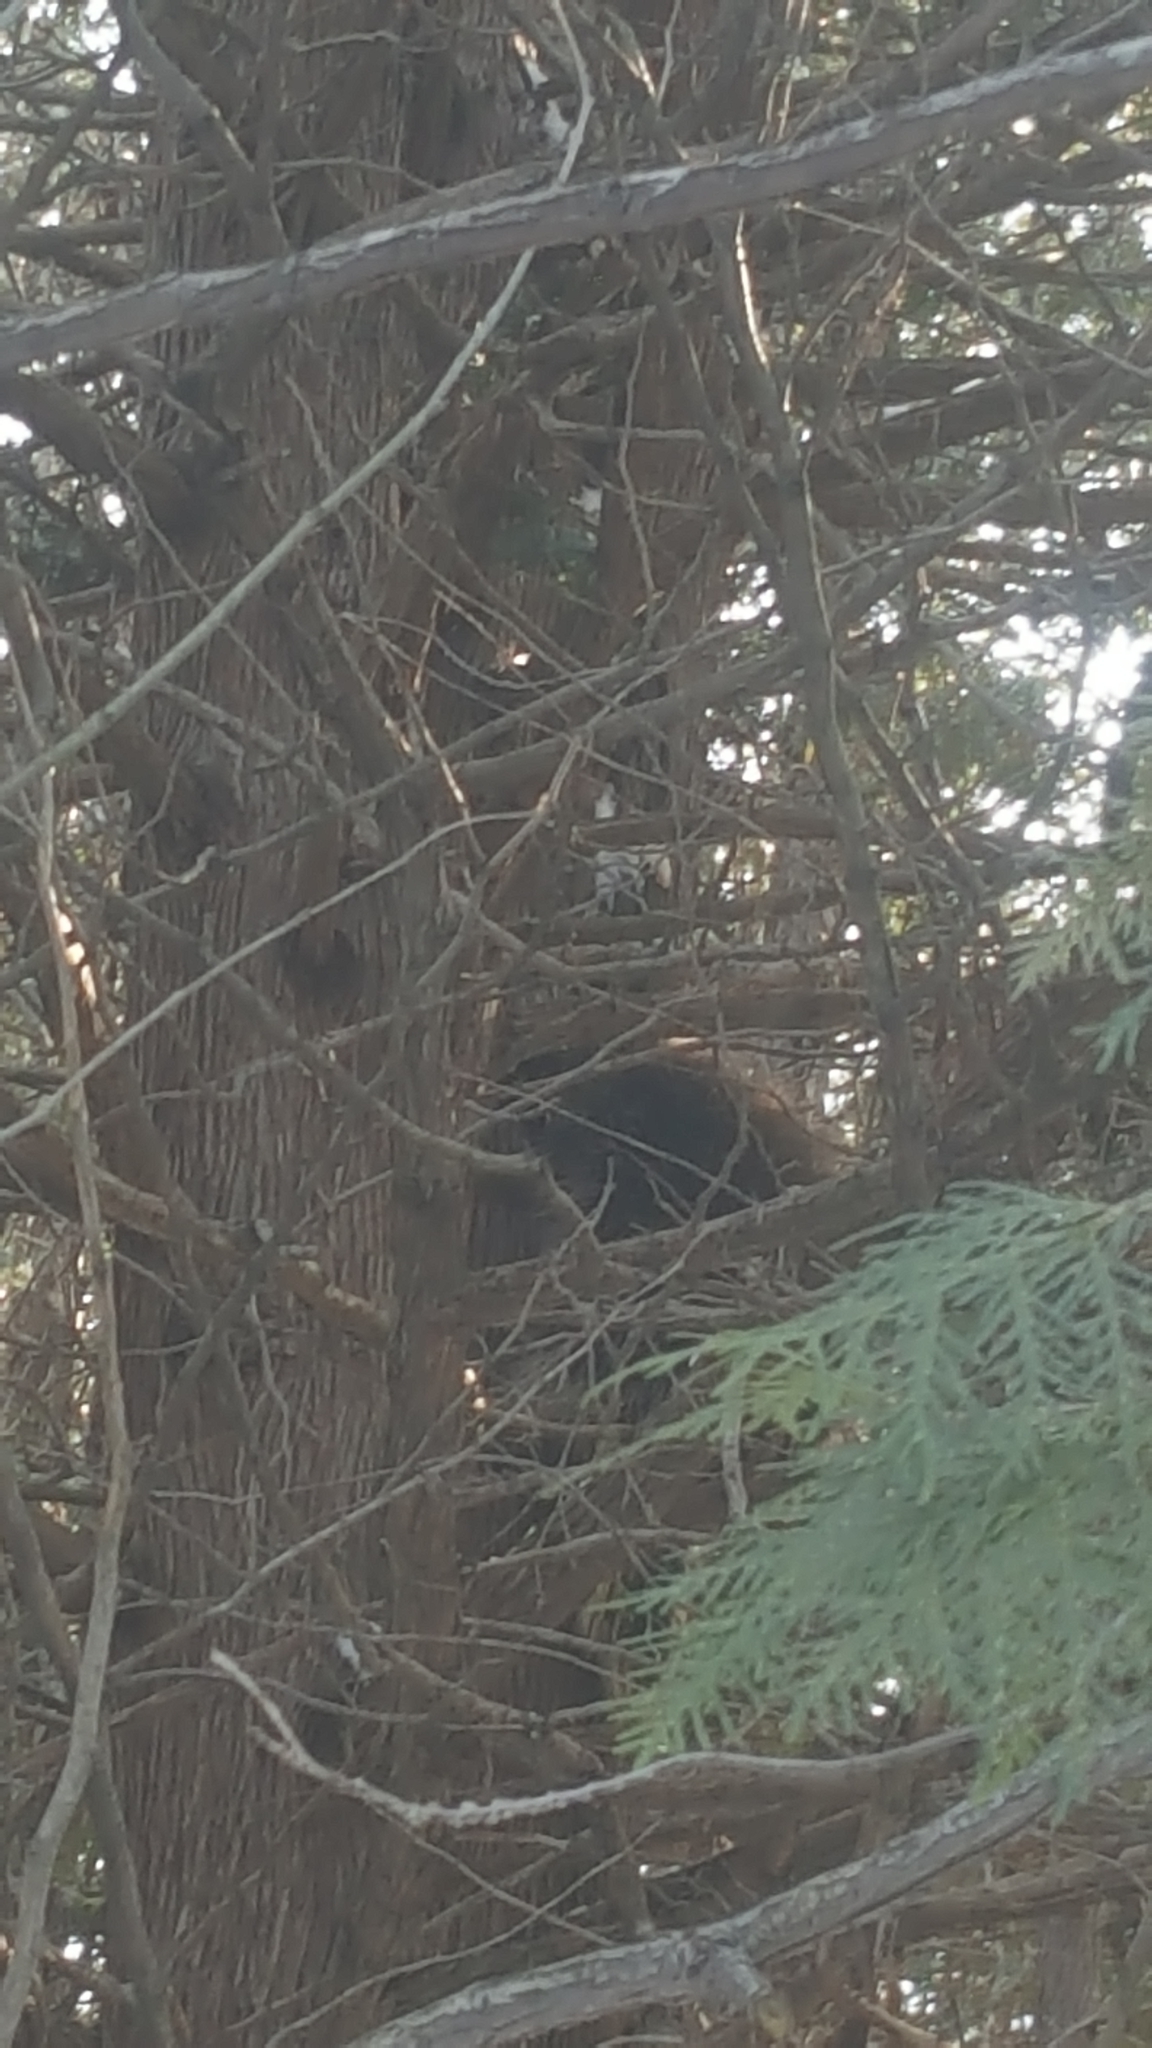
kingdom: Animalia
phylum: Chordata
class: Mammalia
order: Rodentia
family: Erethizontidae
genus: Erethizon
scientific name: Erethizon dorsatus
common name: North american porcupine
